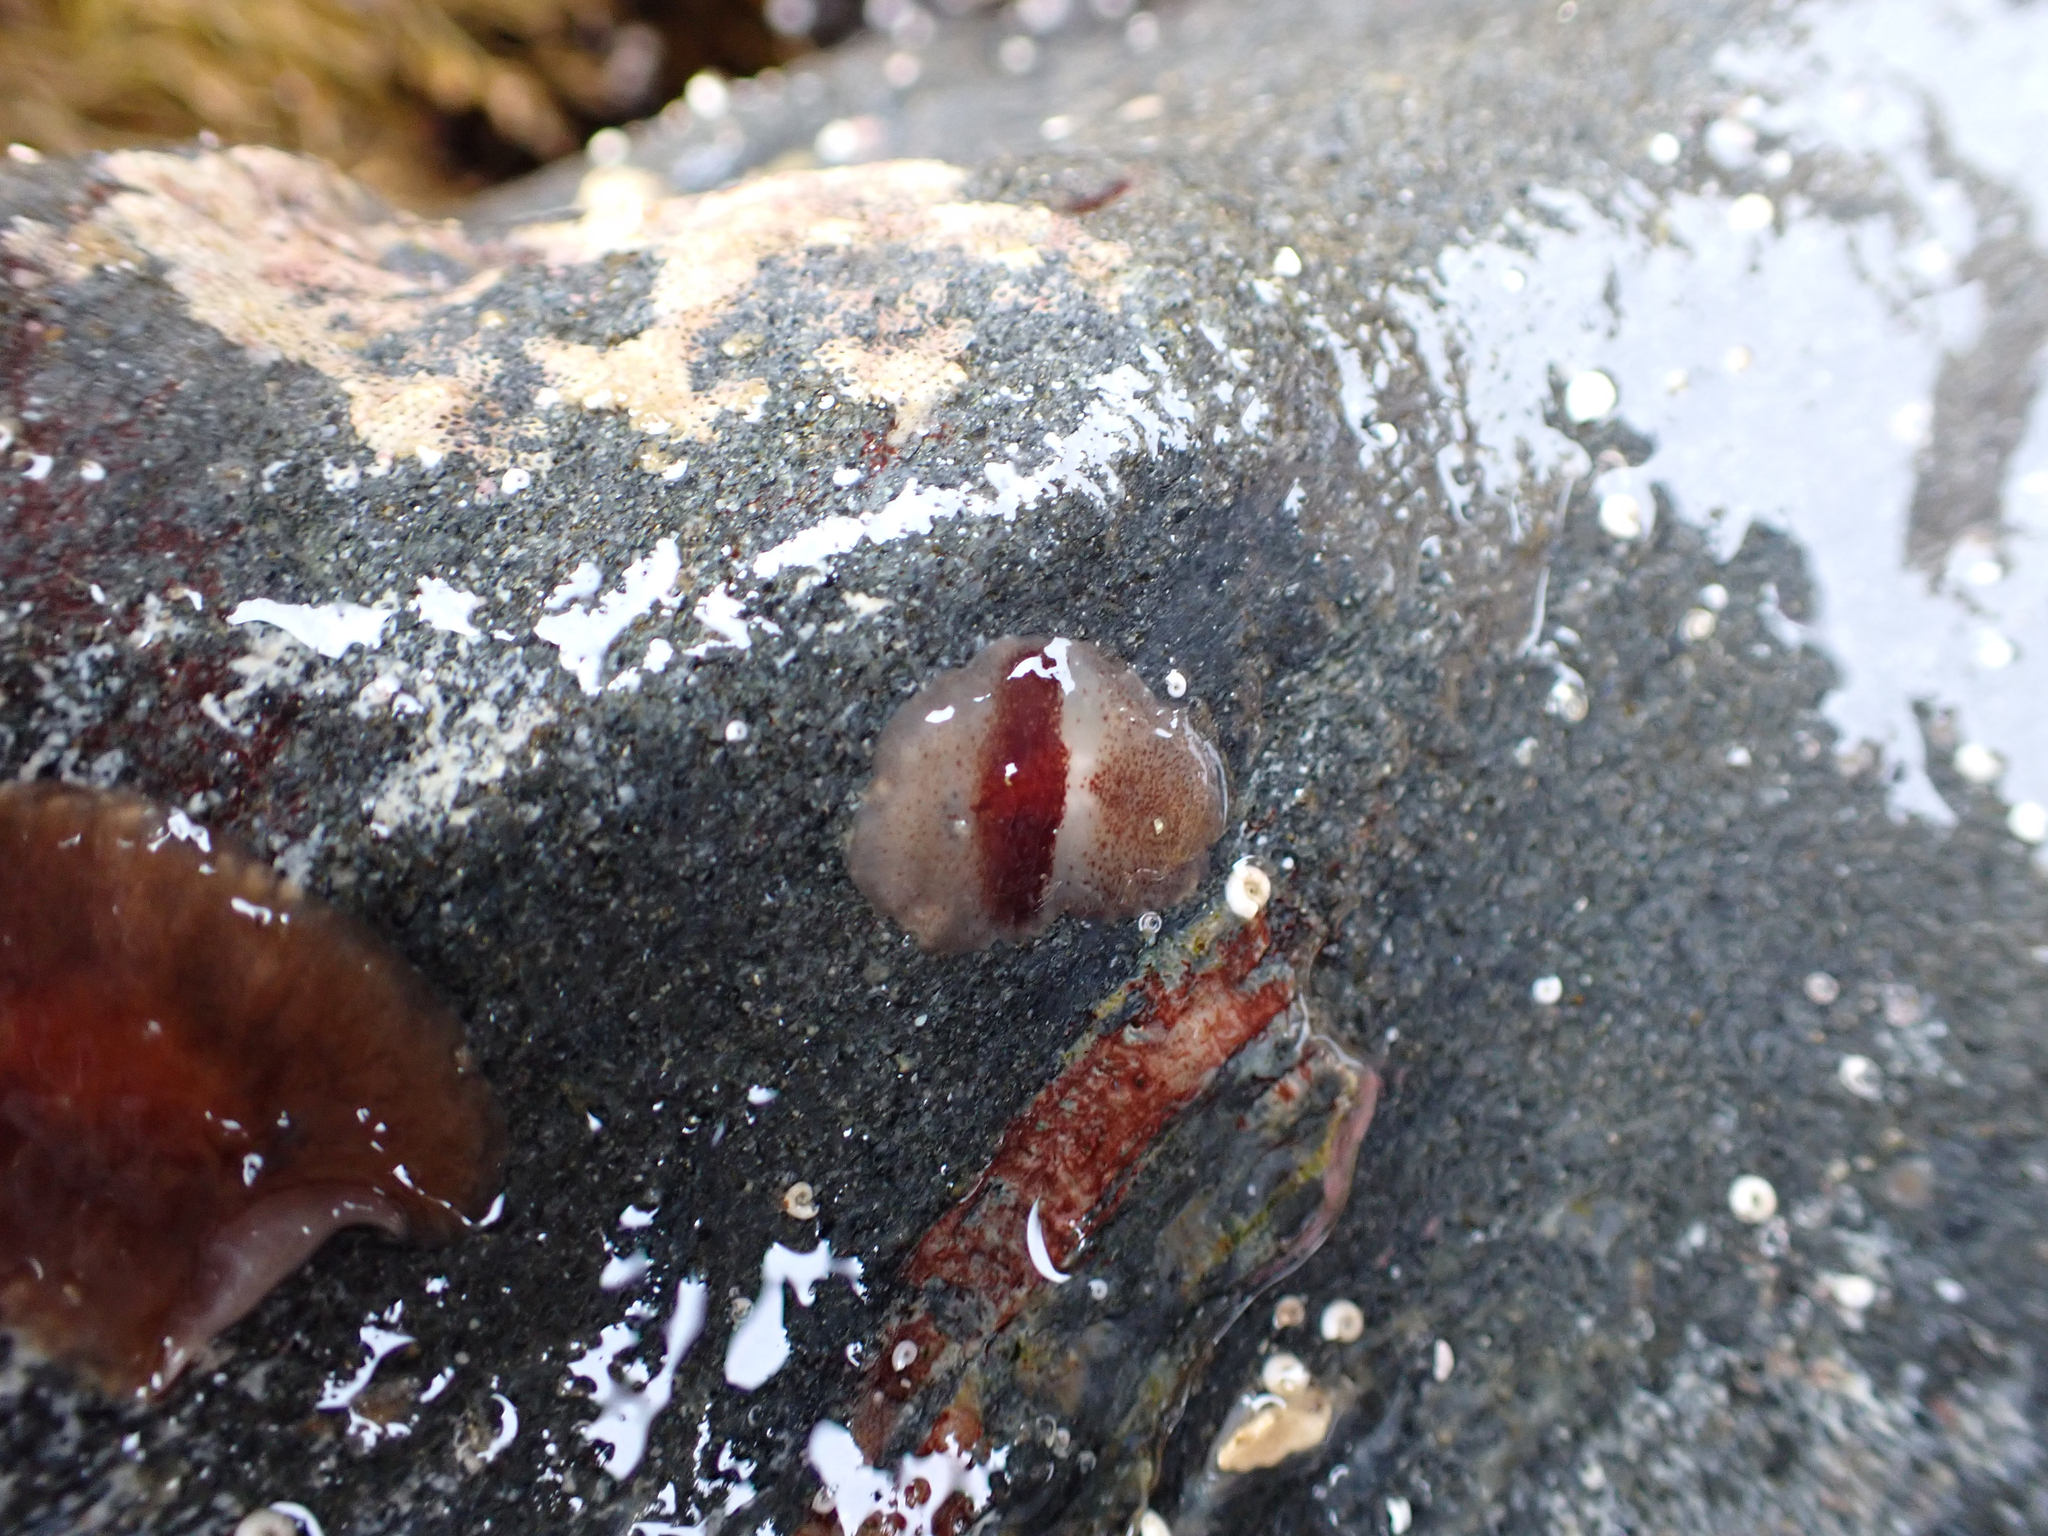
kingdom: Animalia
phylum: Platyhelminthes
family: Notocomplanidae
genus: Notocomplana
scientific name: Notocomplana sanguinea
